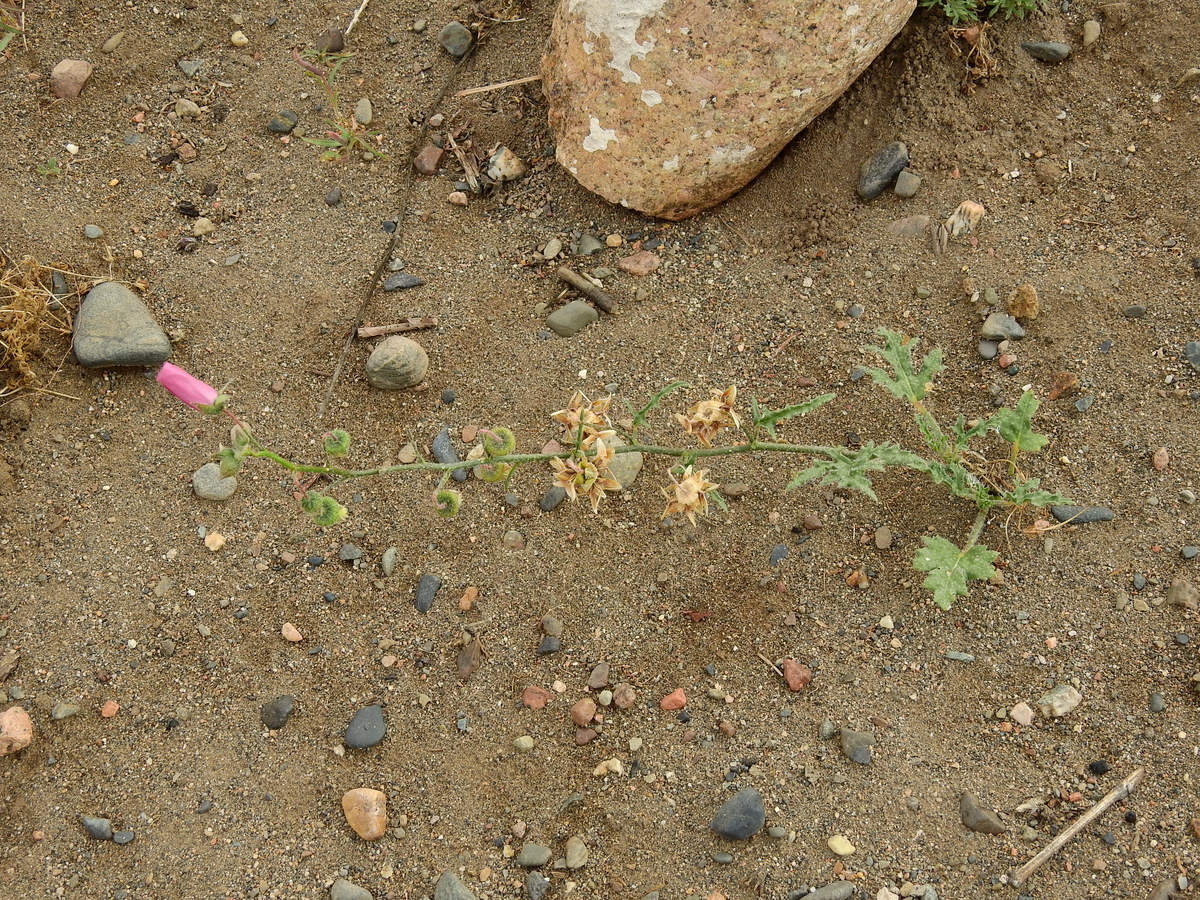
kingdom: Plantae
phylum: Tracheophyta
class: Magnoliopsida
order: Malvales
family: Malvaceae
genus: Lecanophora
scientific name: Lecanophora heterophylla
